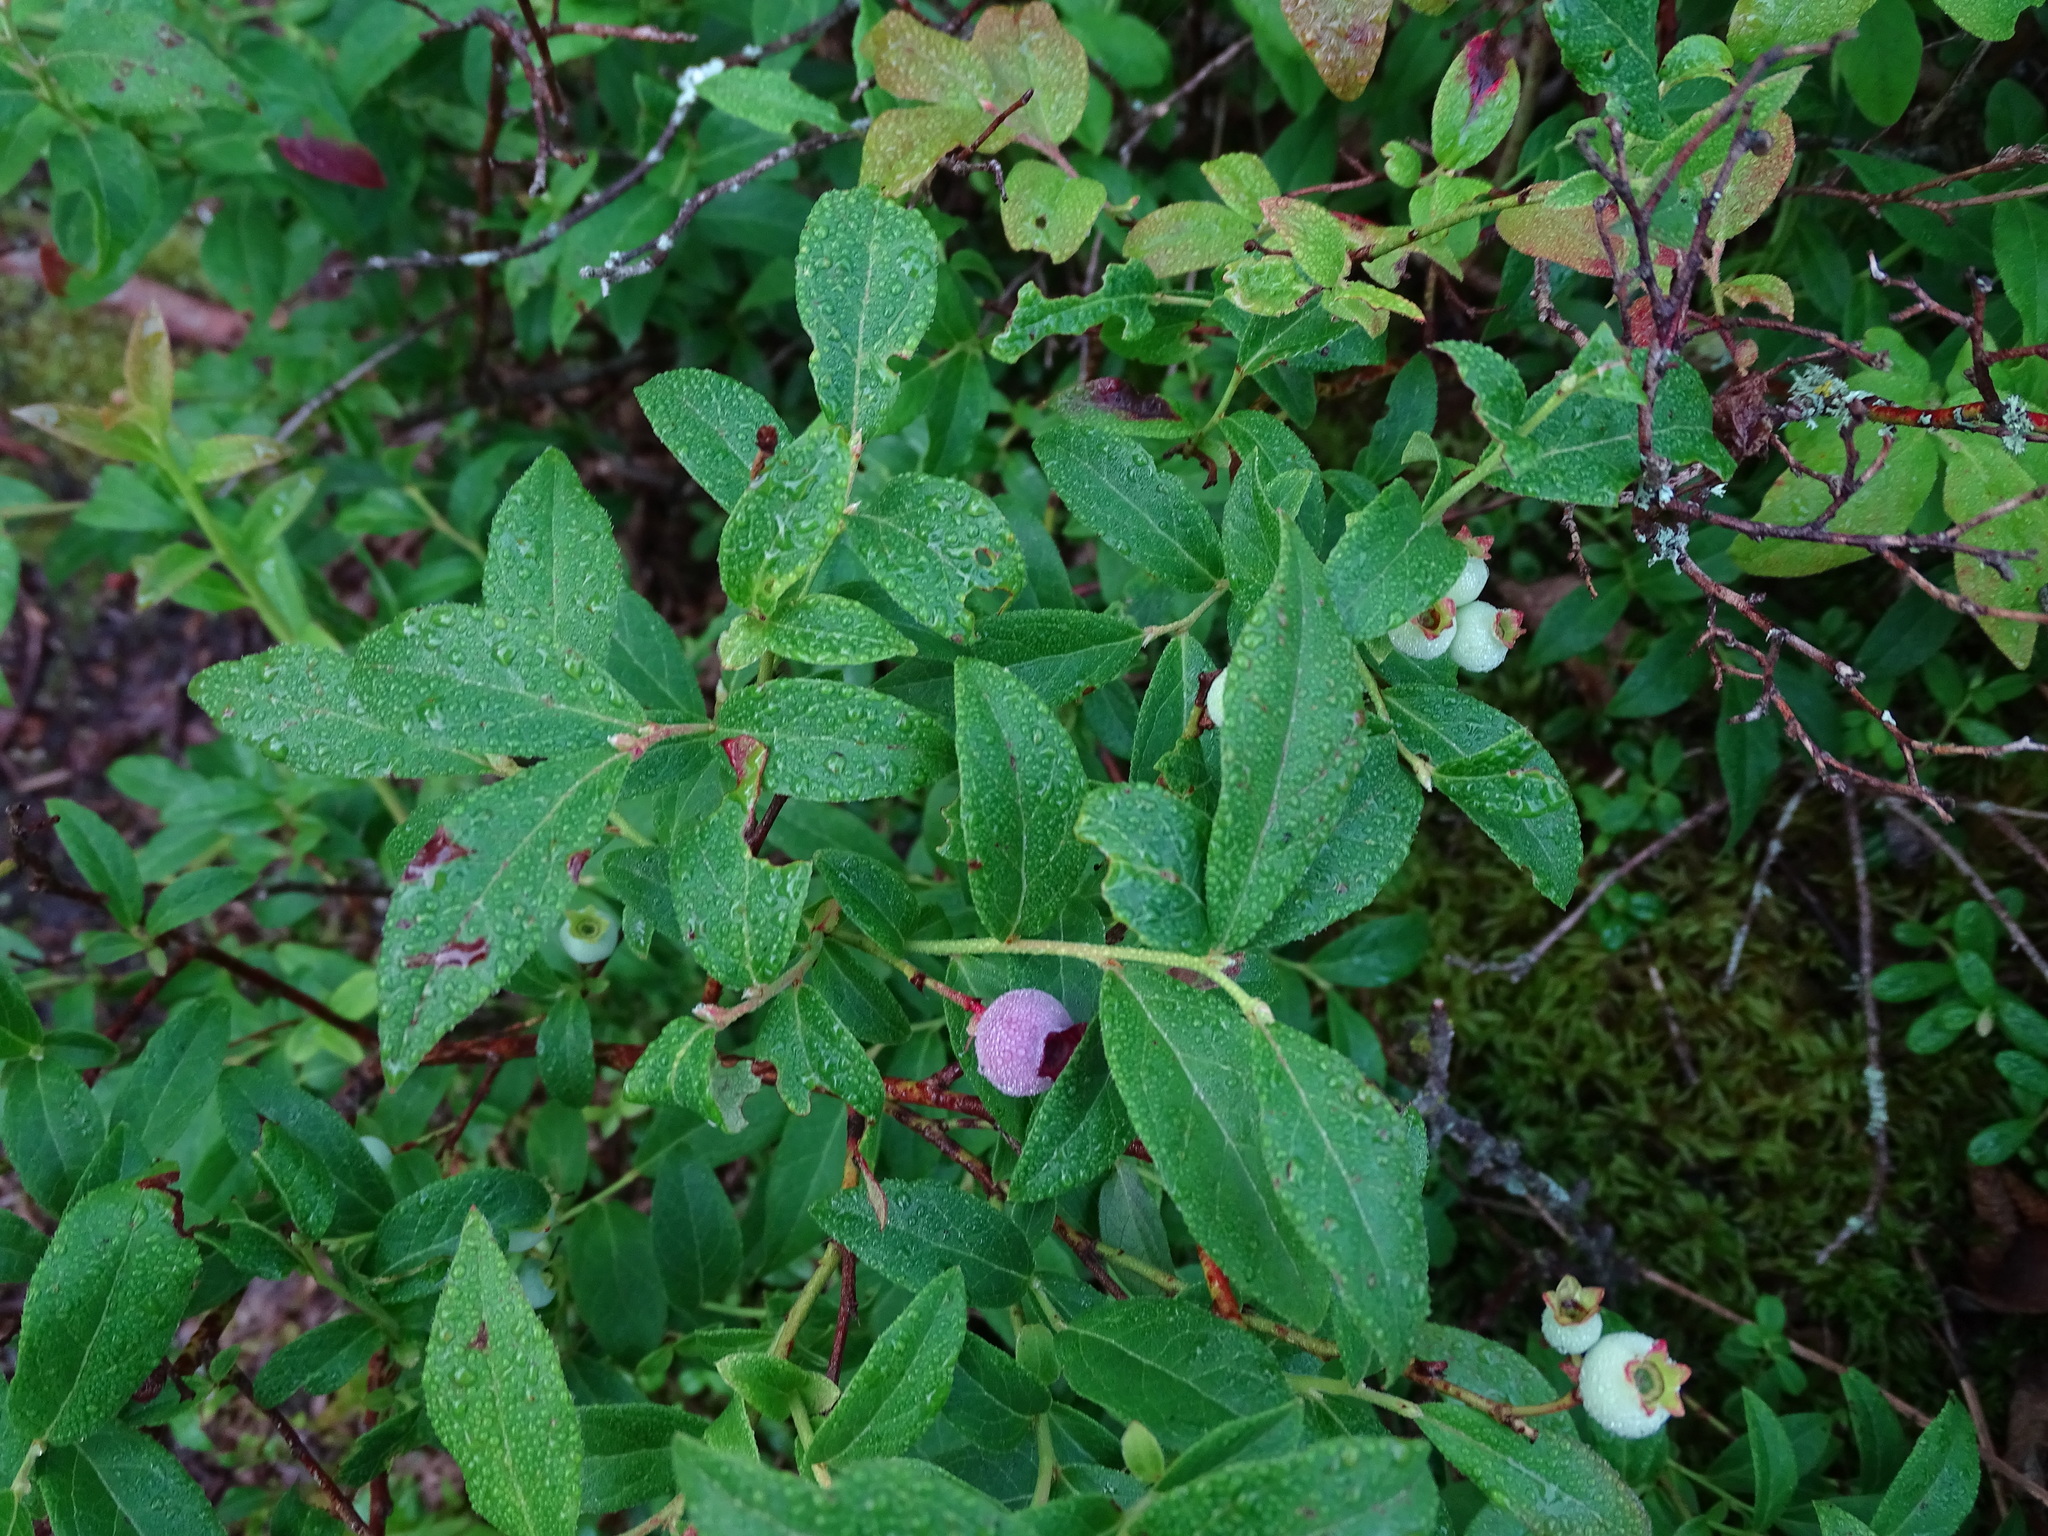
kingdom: Plantae
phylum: Tracheophyta
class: Magnoliopsida
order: Ericales
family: Ericaceae
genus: Vaccinium
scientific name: Vaccinium angustifolium
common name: Early lowbush blueberry
